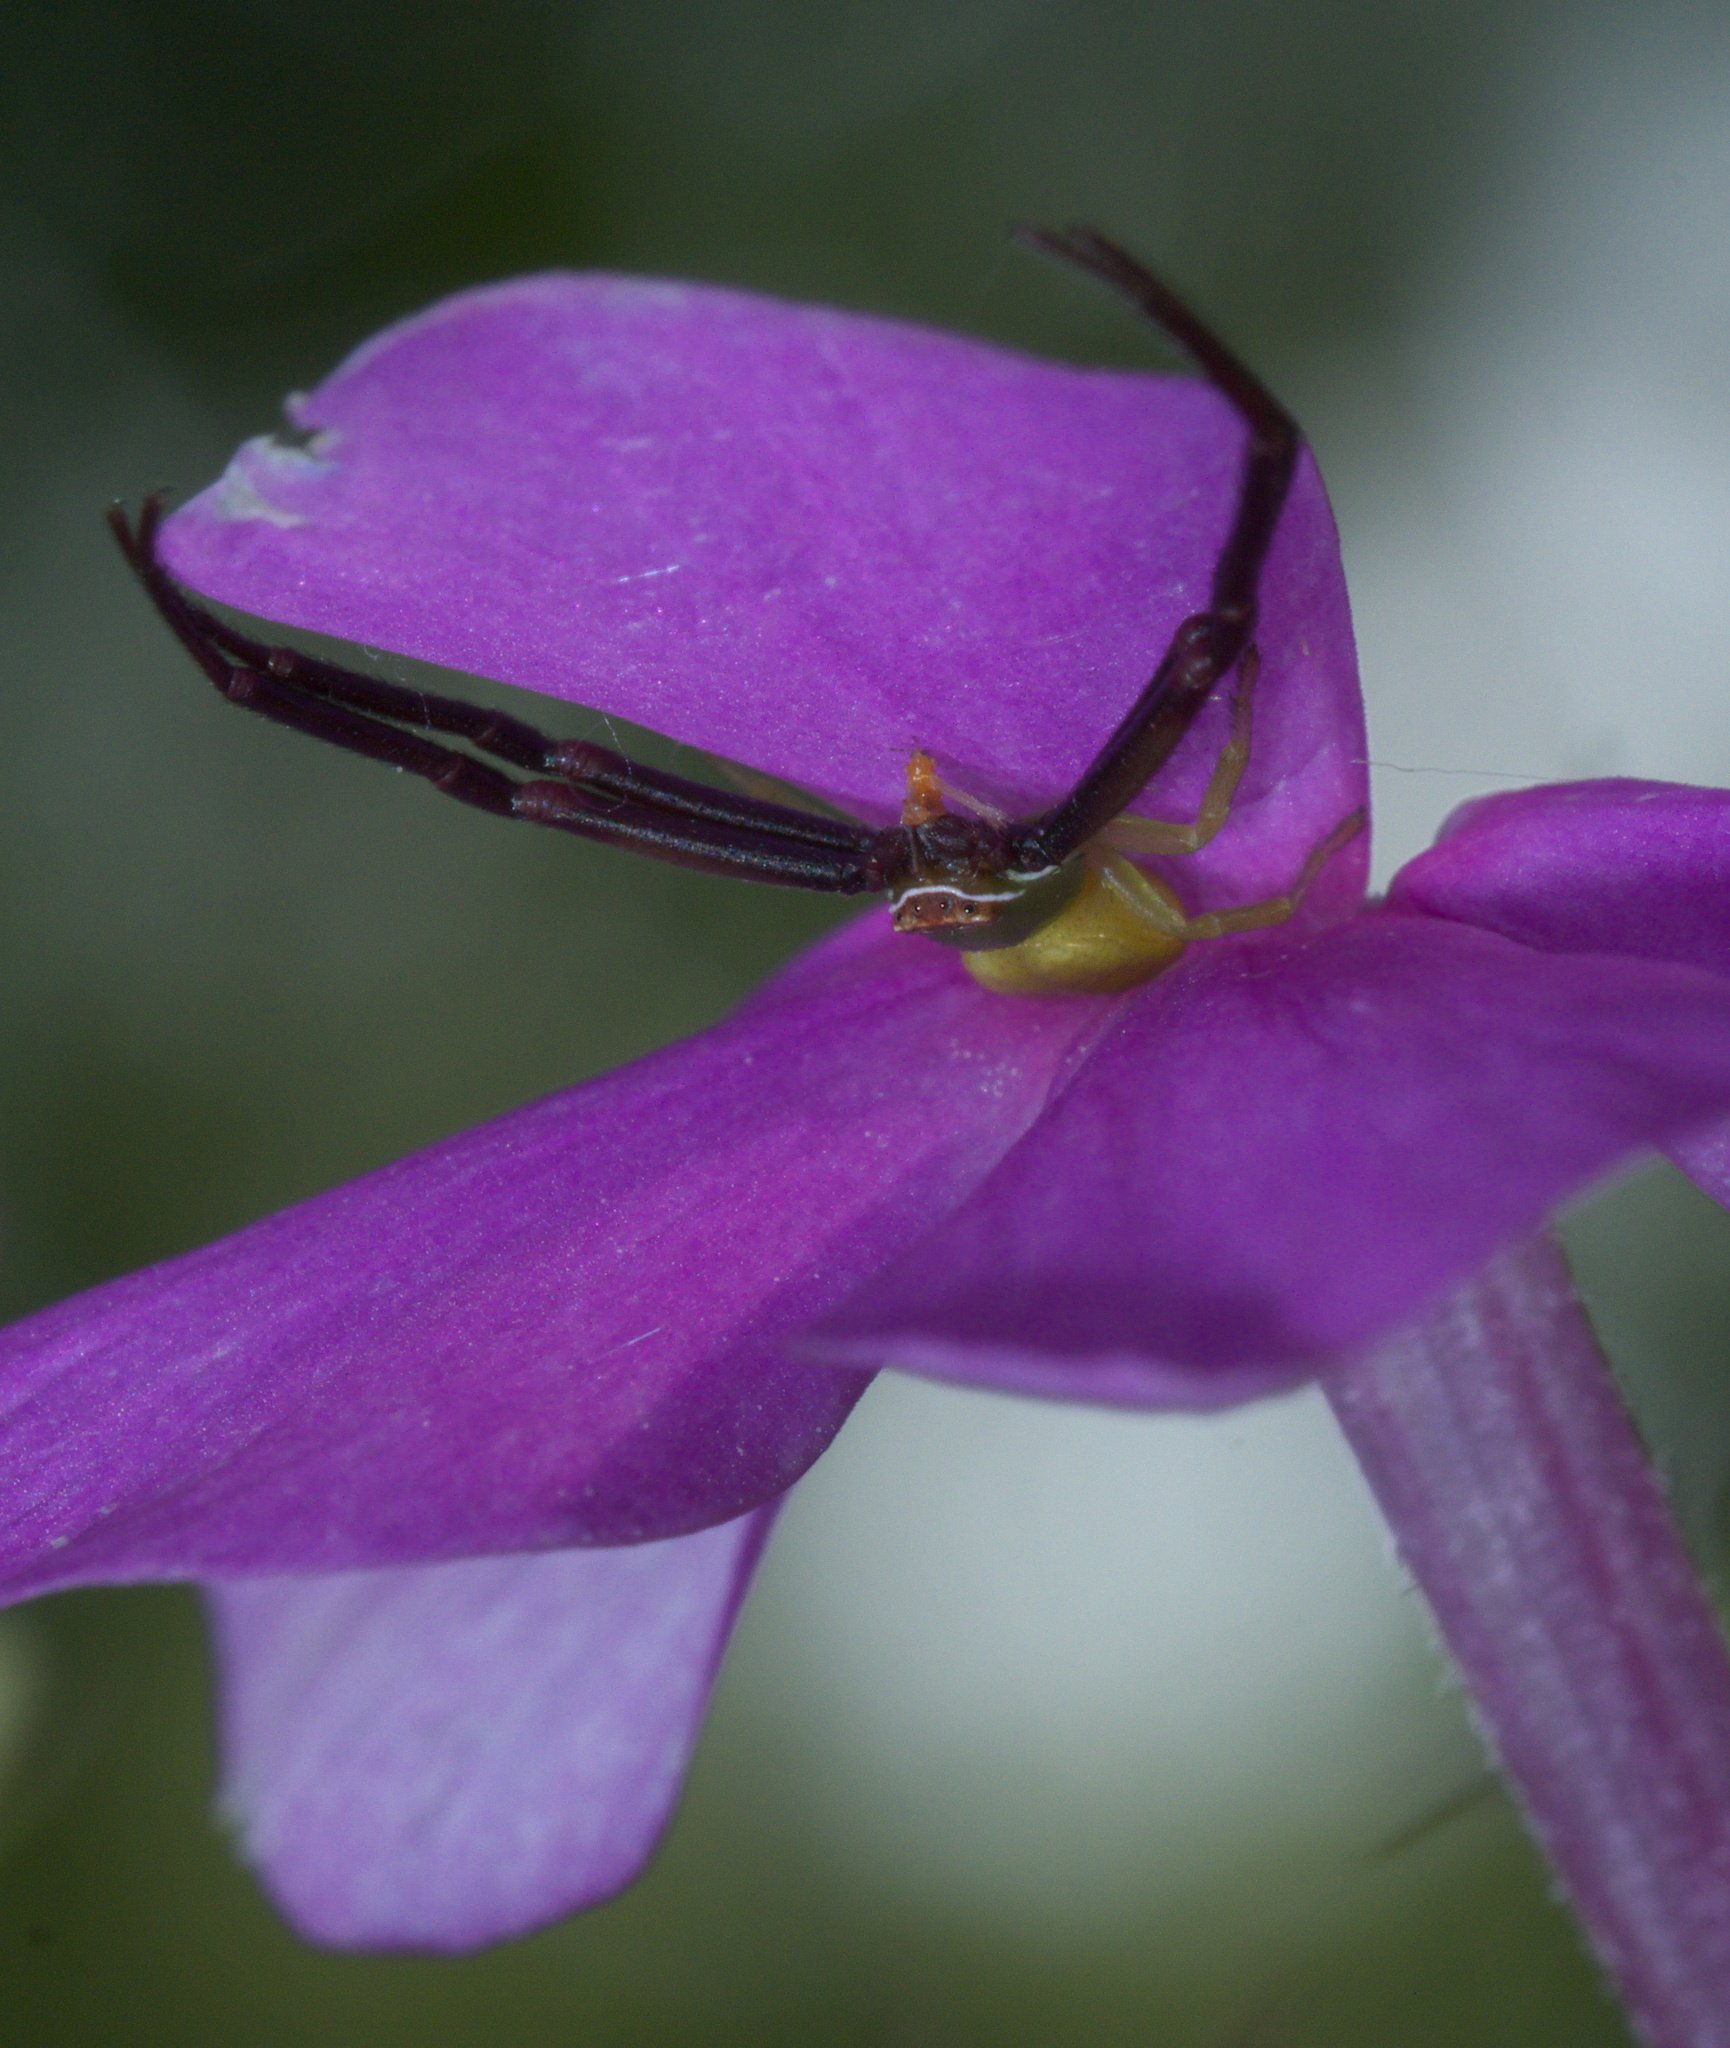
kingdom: Animalia
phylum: Arthropoda
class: Arachnida
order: Araneae
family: Thomisidae
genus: Misumenoides
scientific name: Misumenoides formosipes
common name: White-banded crab spider
